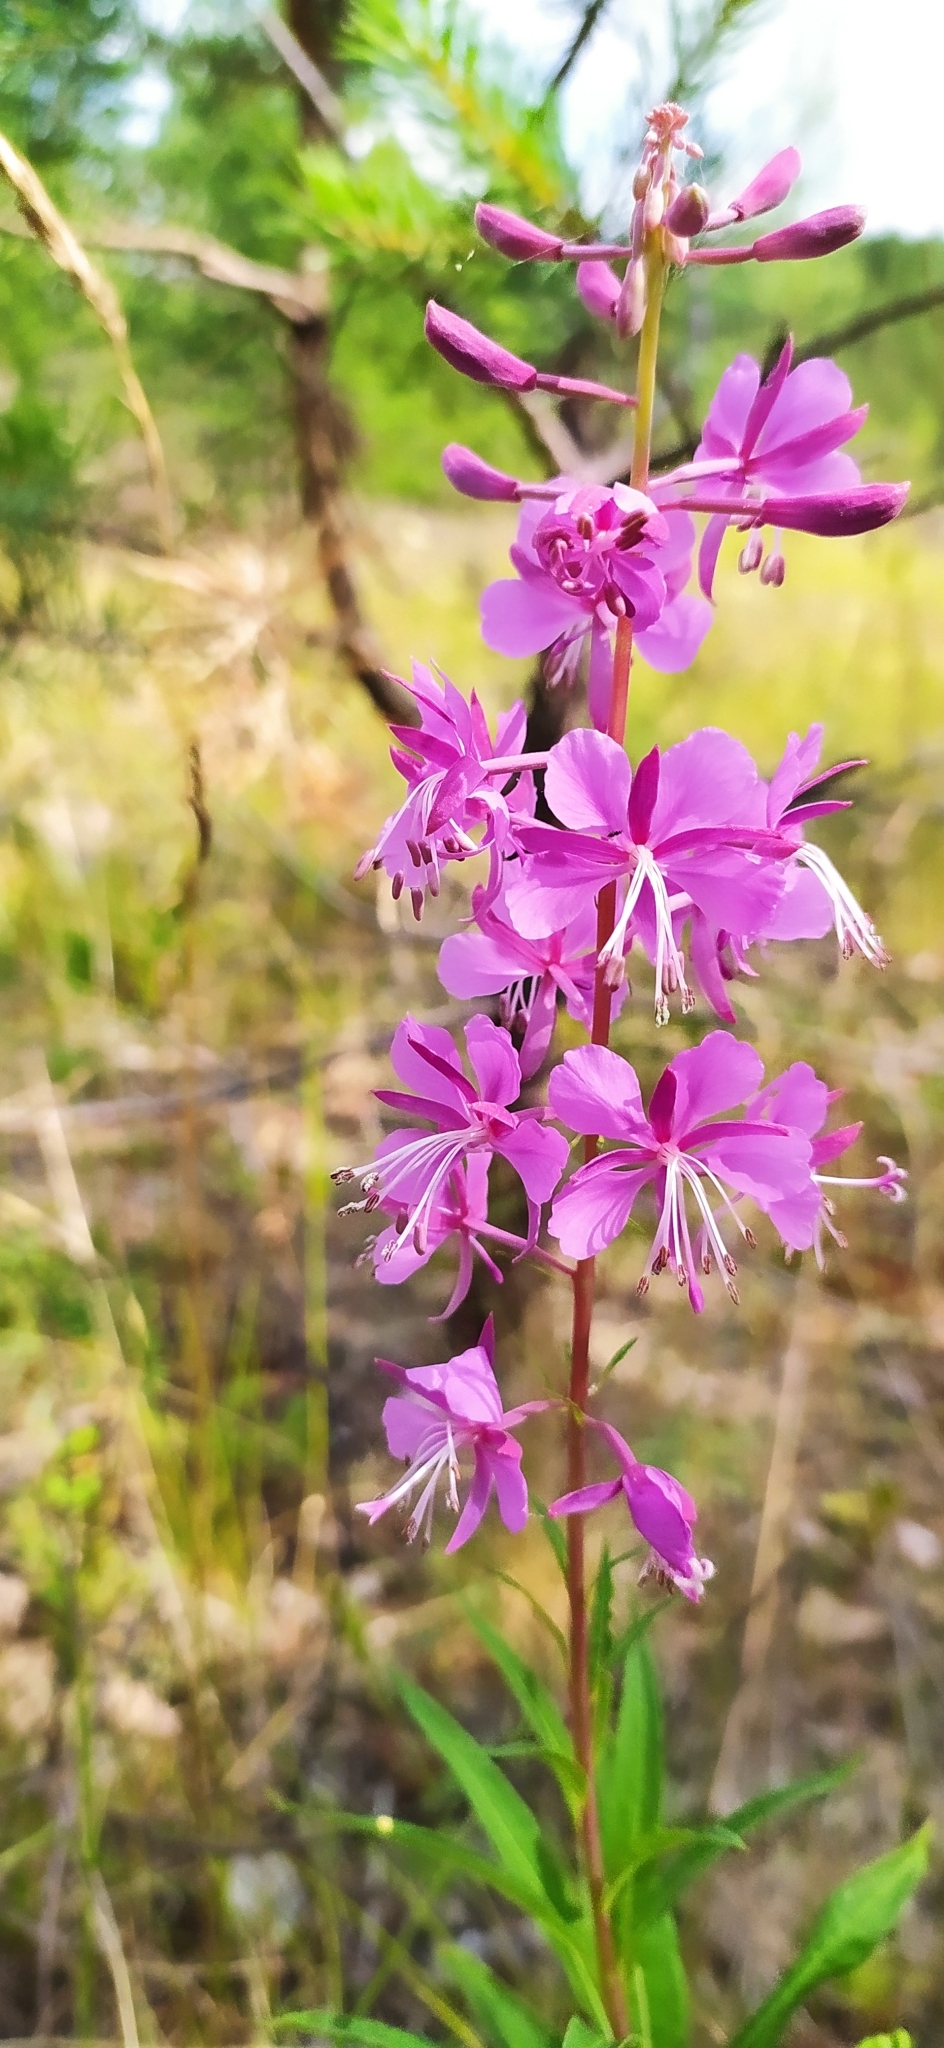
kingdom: Plantae
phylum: Tracheophyta
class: Magnoliopsida
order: Myrtales
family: Onagraceae
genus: Chamaenerion
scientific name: Chamaenerion angustifolium
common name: Fireweed
